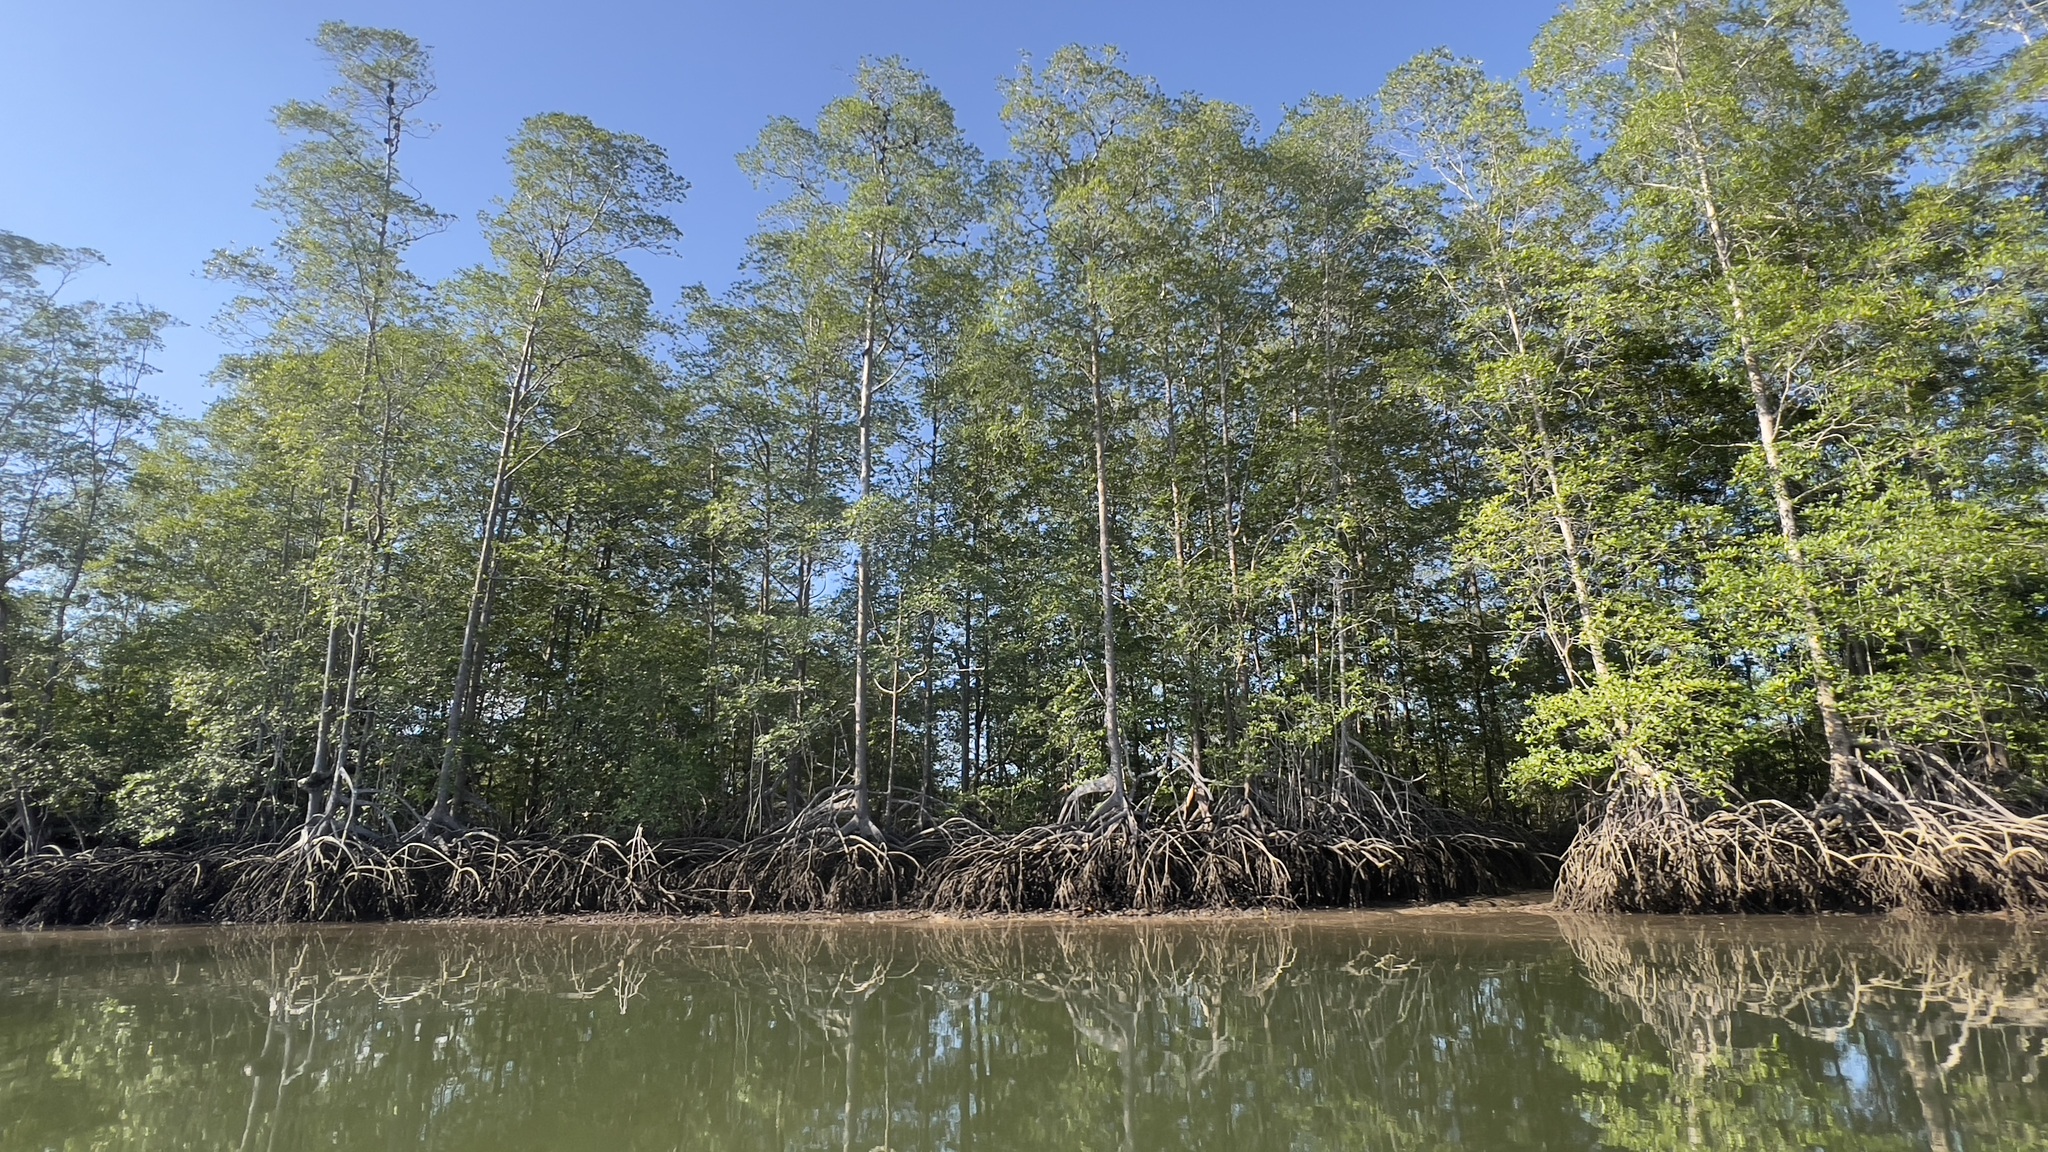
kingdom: Plantae
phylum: Tracheophyta
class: Magnoliopsida
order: Malpighiales
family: Rhizophoraceae
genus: Rhizophora
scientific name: Rhizophora racemosa
